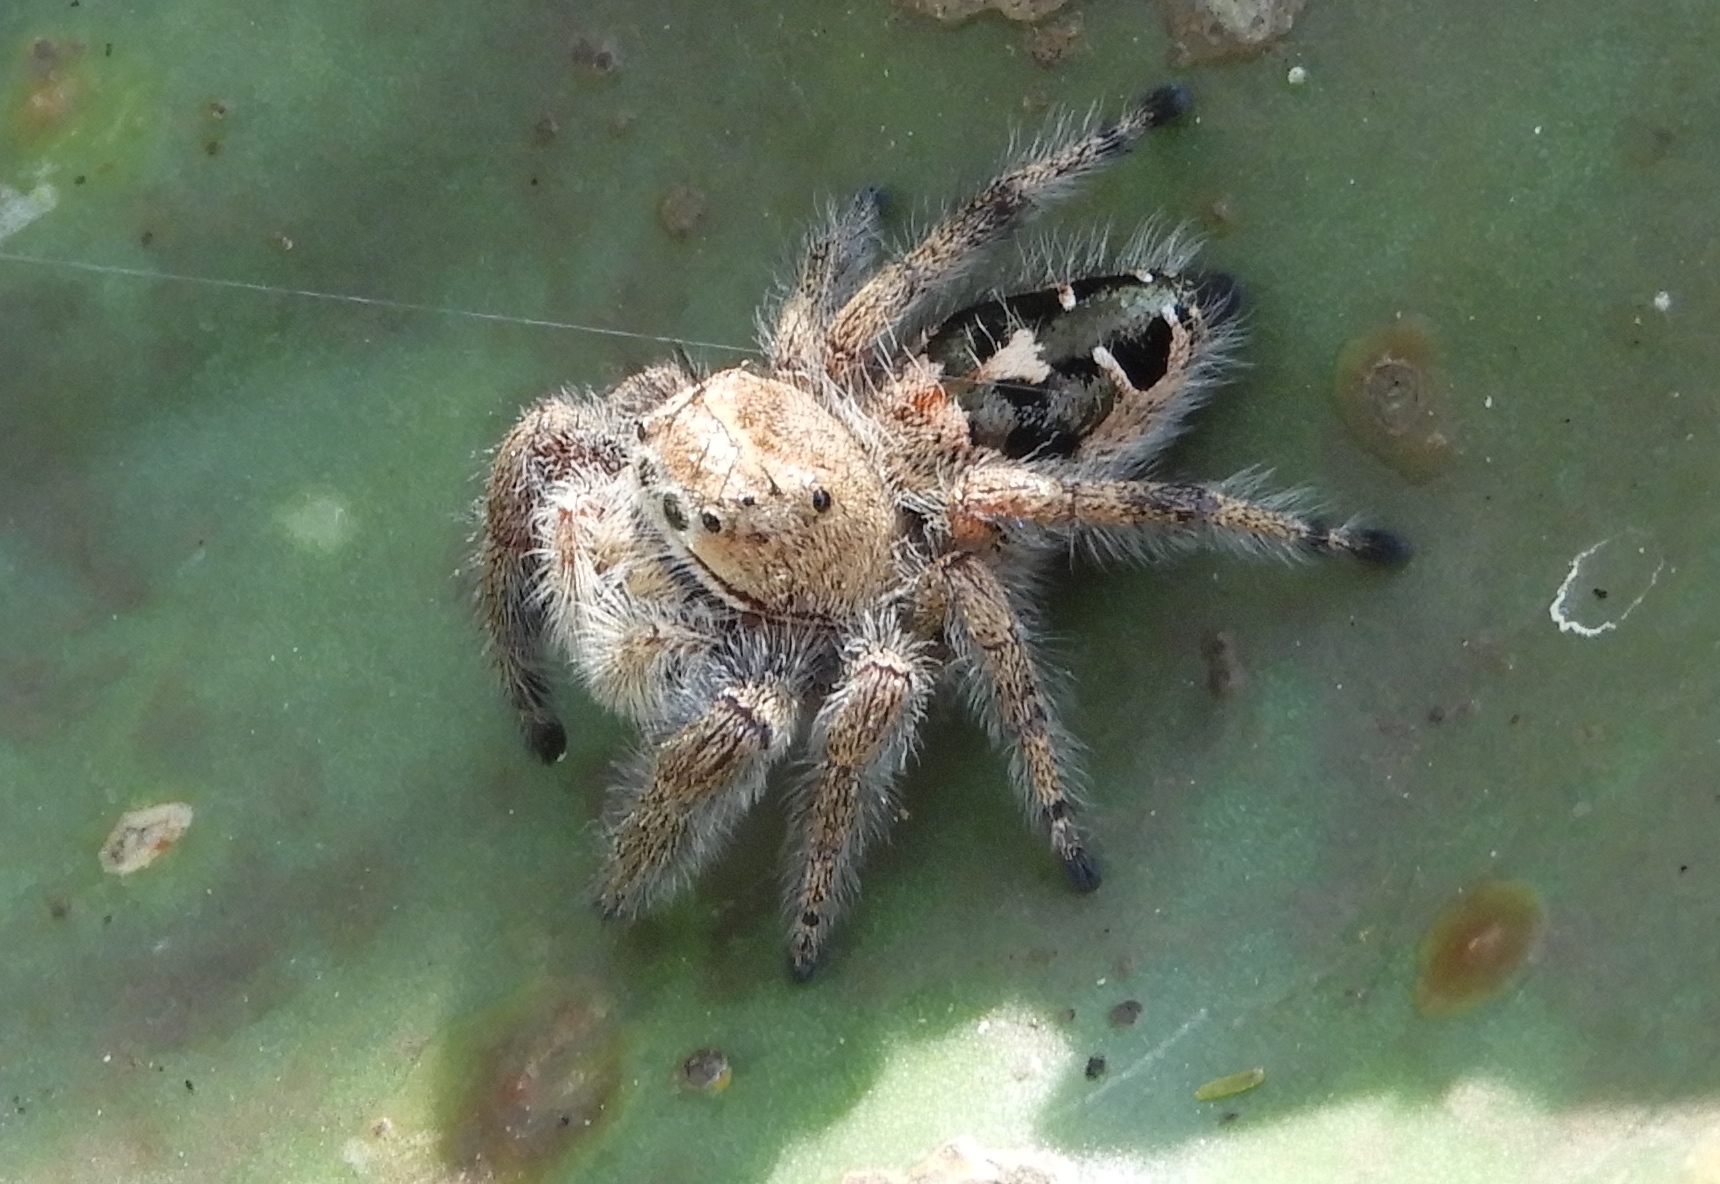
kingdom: Animalia
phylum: Arthropoda
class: Arachnida
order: Araneae
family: Salticidae
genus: Phidippus
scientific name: Phidippus maddisoni
